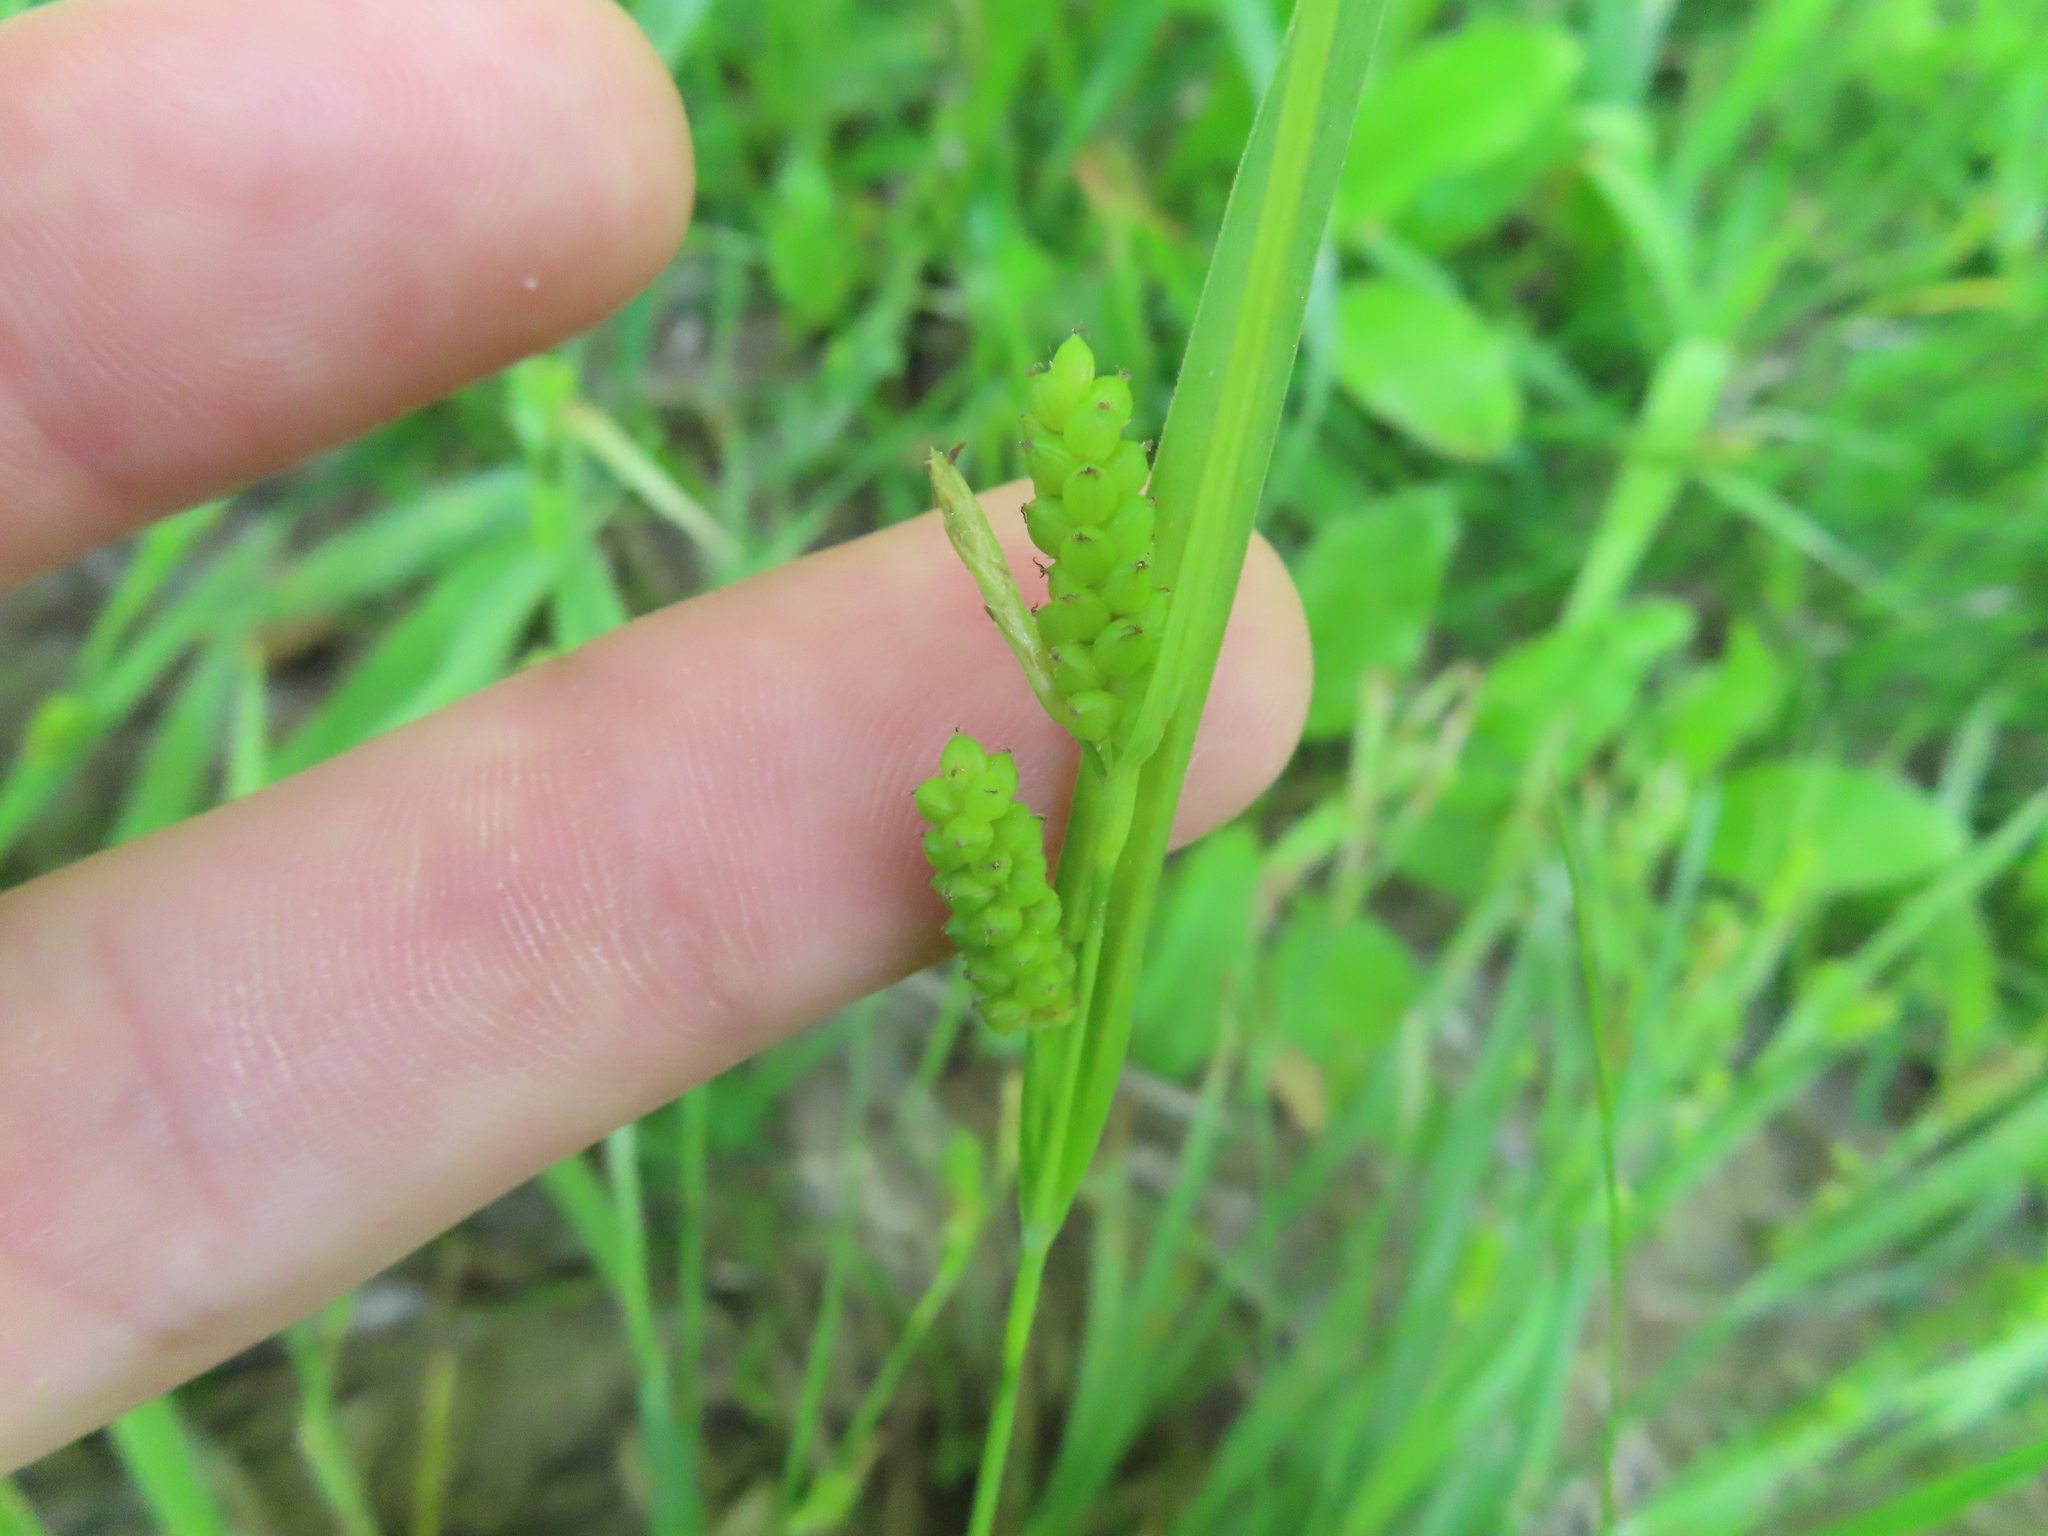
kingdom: Plantae
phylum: Tracheophyta
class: Liliopsida
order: Poales
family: Cyperaceae
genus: Carex
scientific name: Carex granularis
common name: Granular sedge
